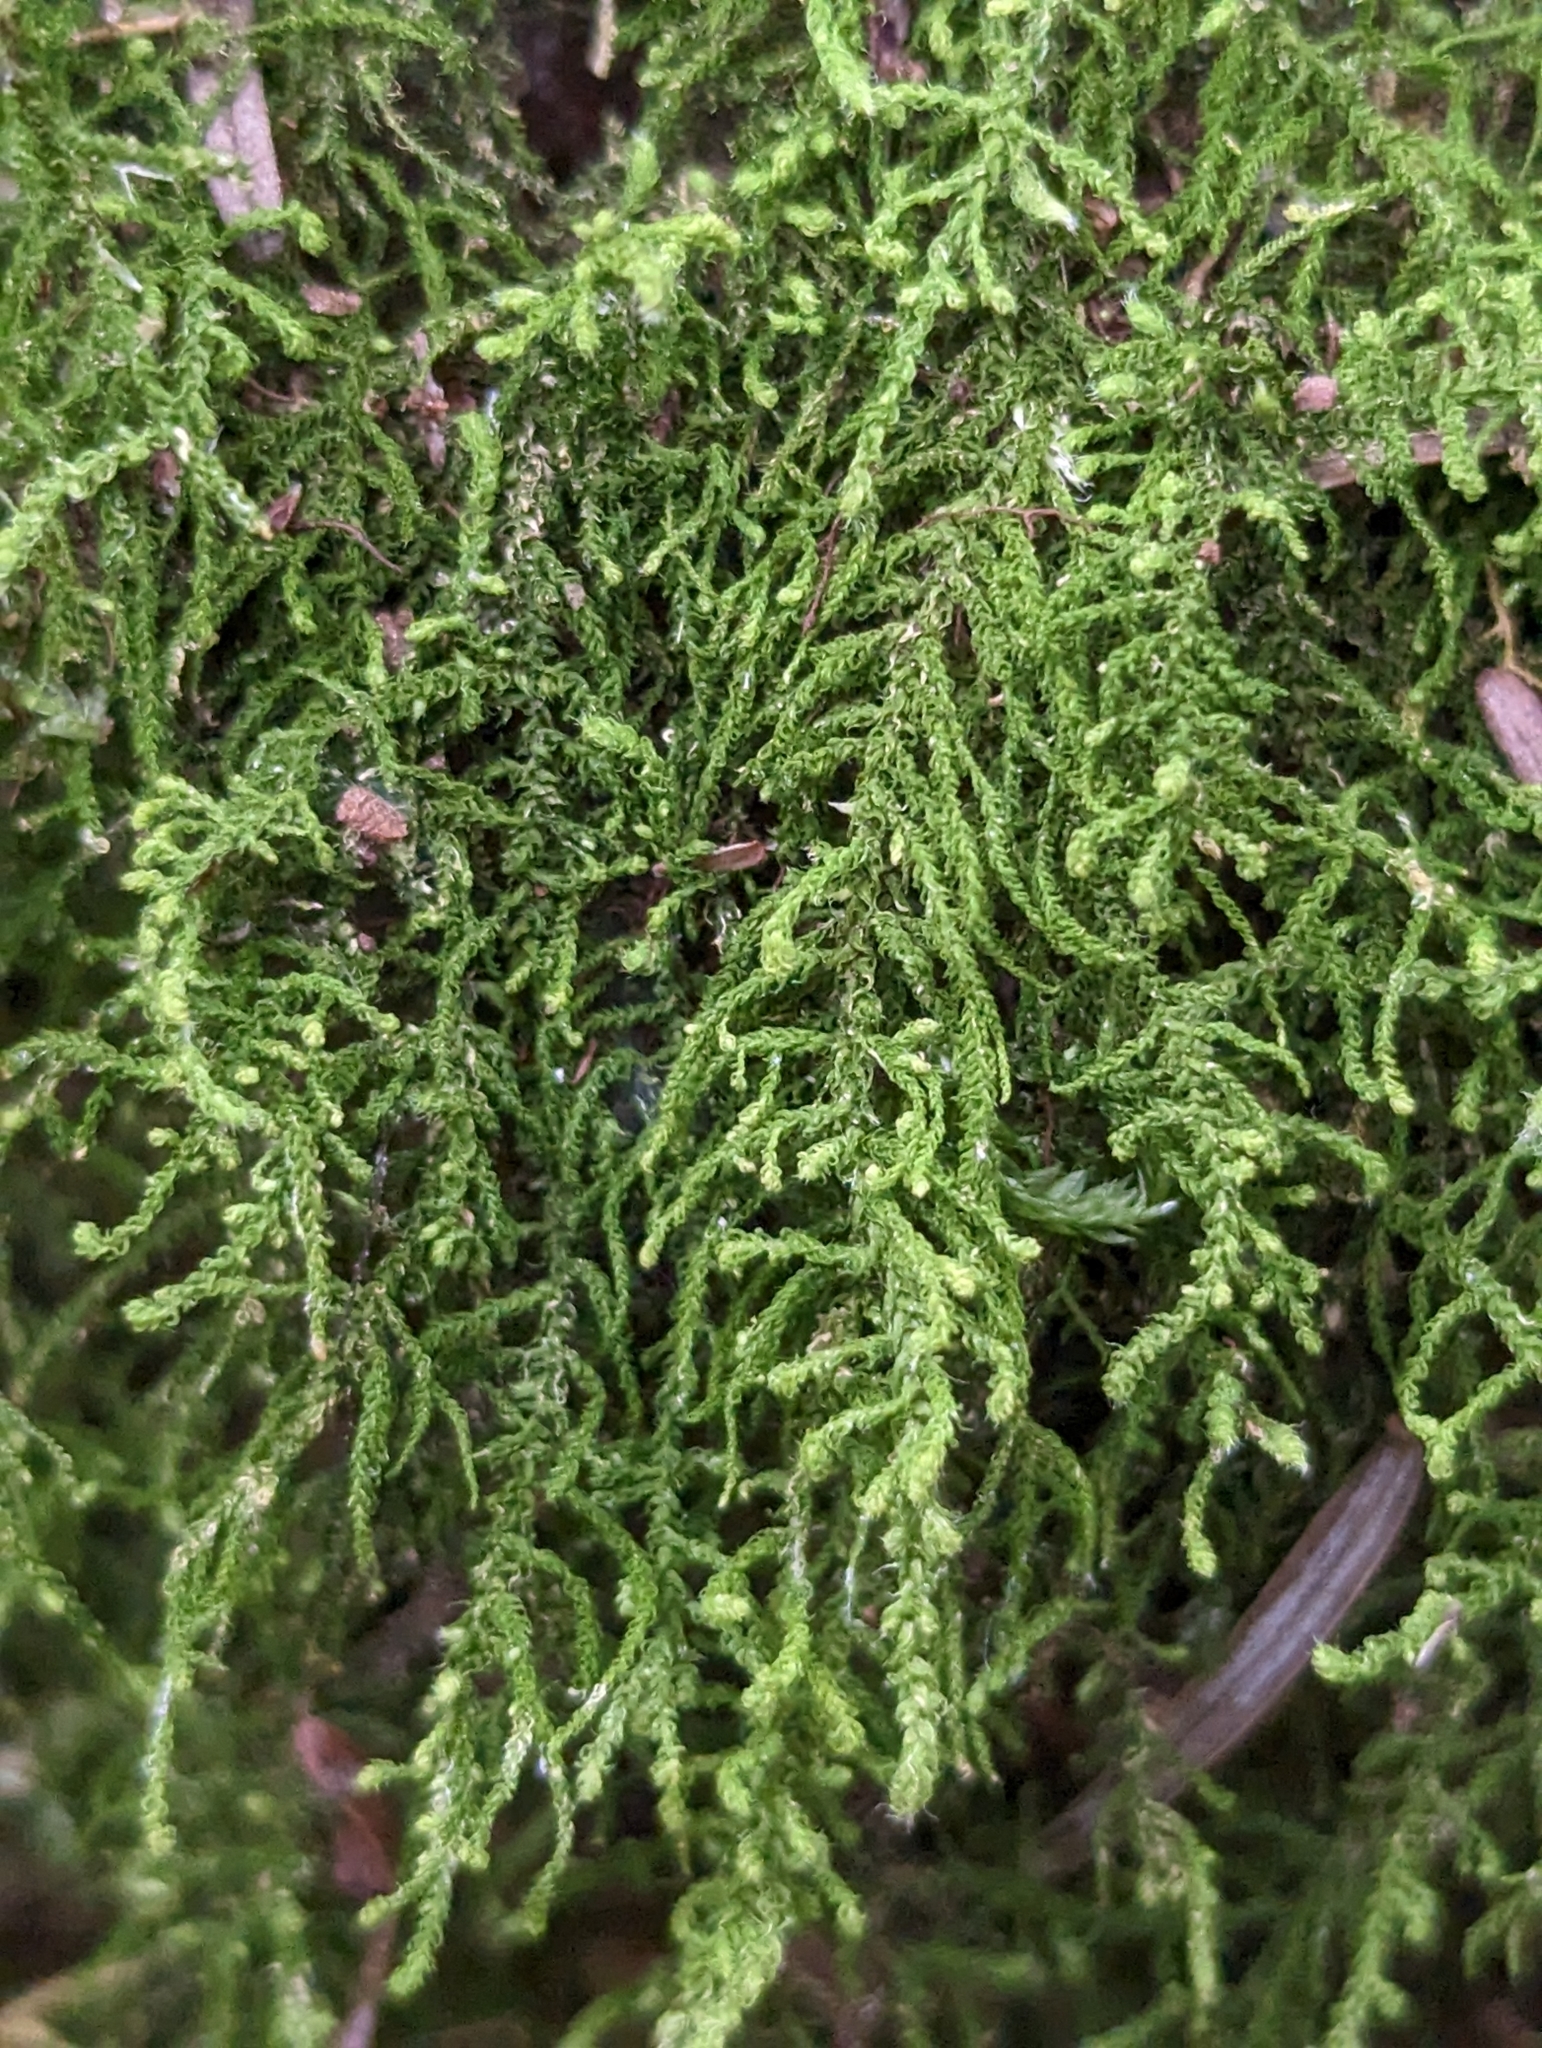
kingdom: Plantae
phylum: Bryophyta
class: Bryopsida
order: Hypnales
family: Brachytheciaceae
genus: Claopodium
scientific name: Claopodium crispifolium
